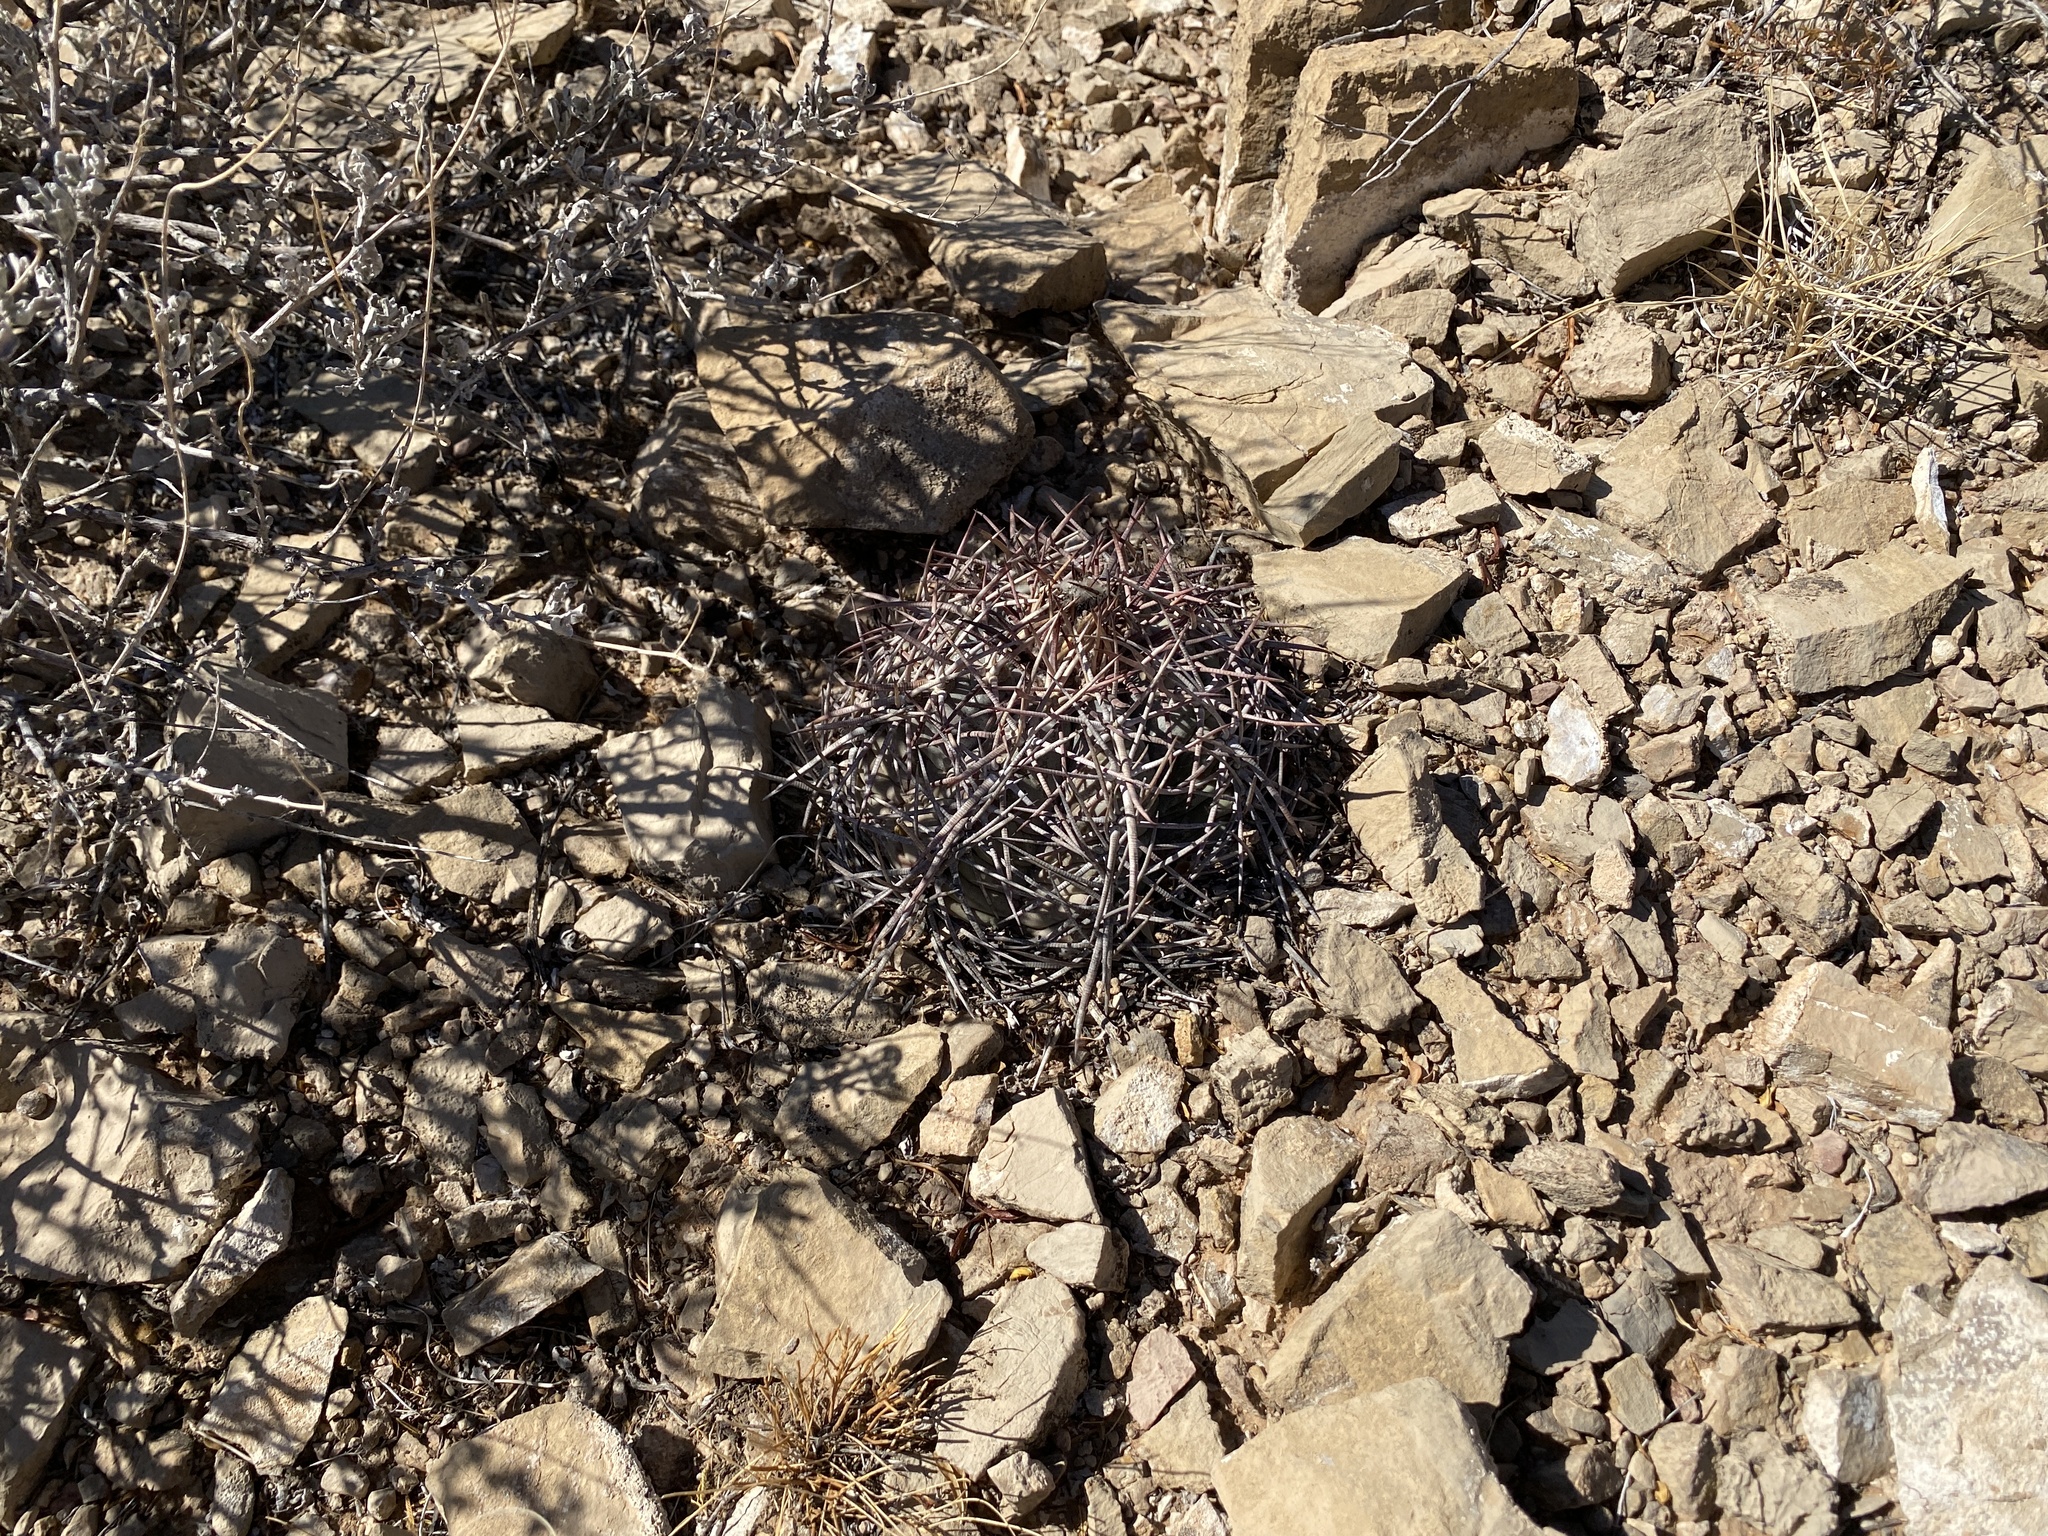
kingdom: Plantae
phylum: Tracheophyta
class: Magnoliopsida
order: Caryophyllales
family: Cactaceae
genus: Echinocactus
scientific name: Echinocactus horizonthalonius
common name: Devilshead
